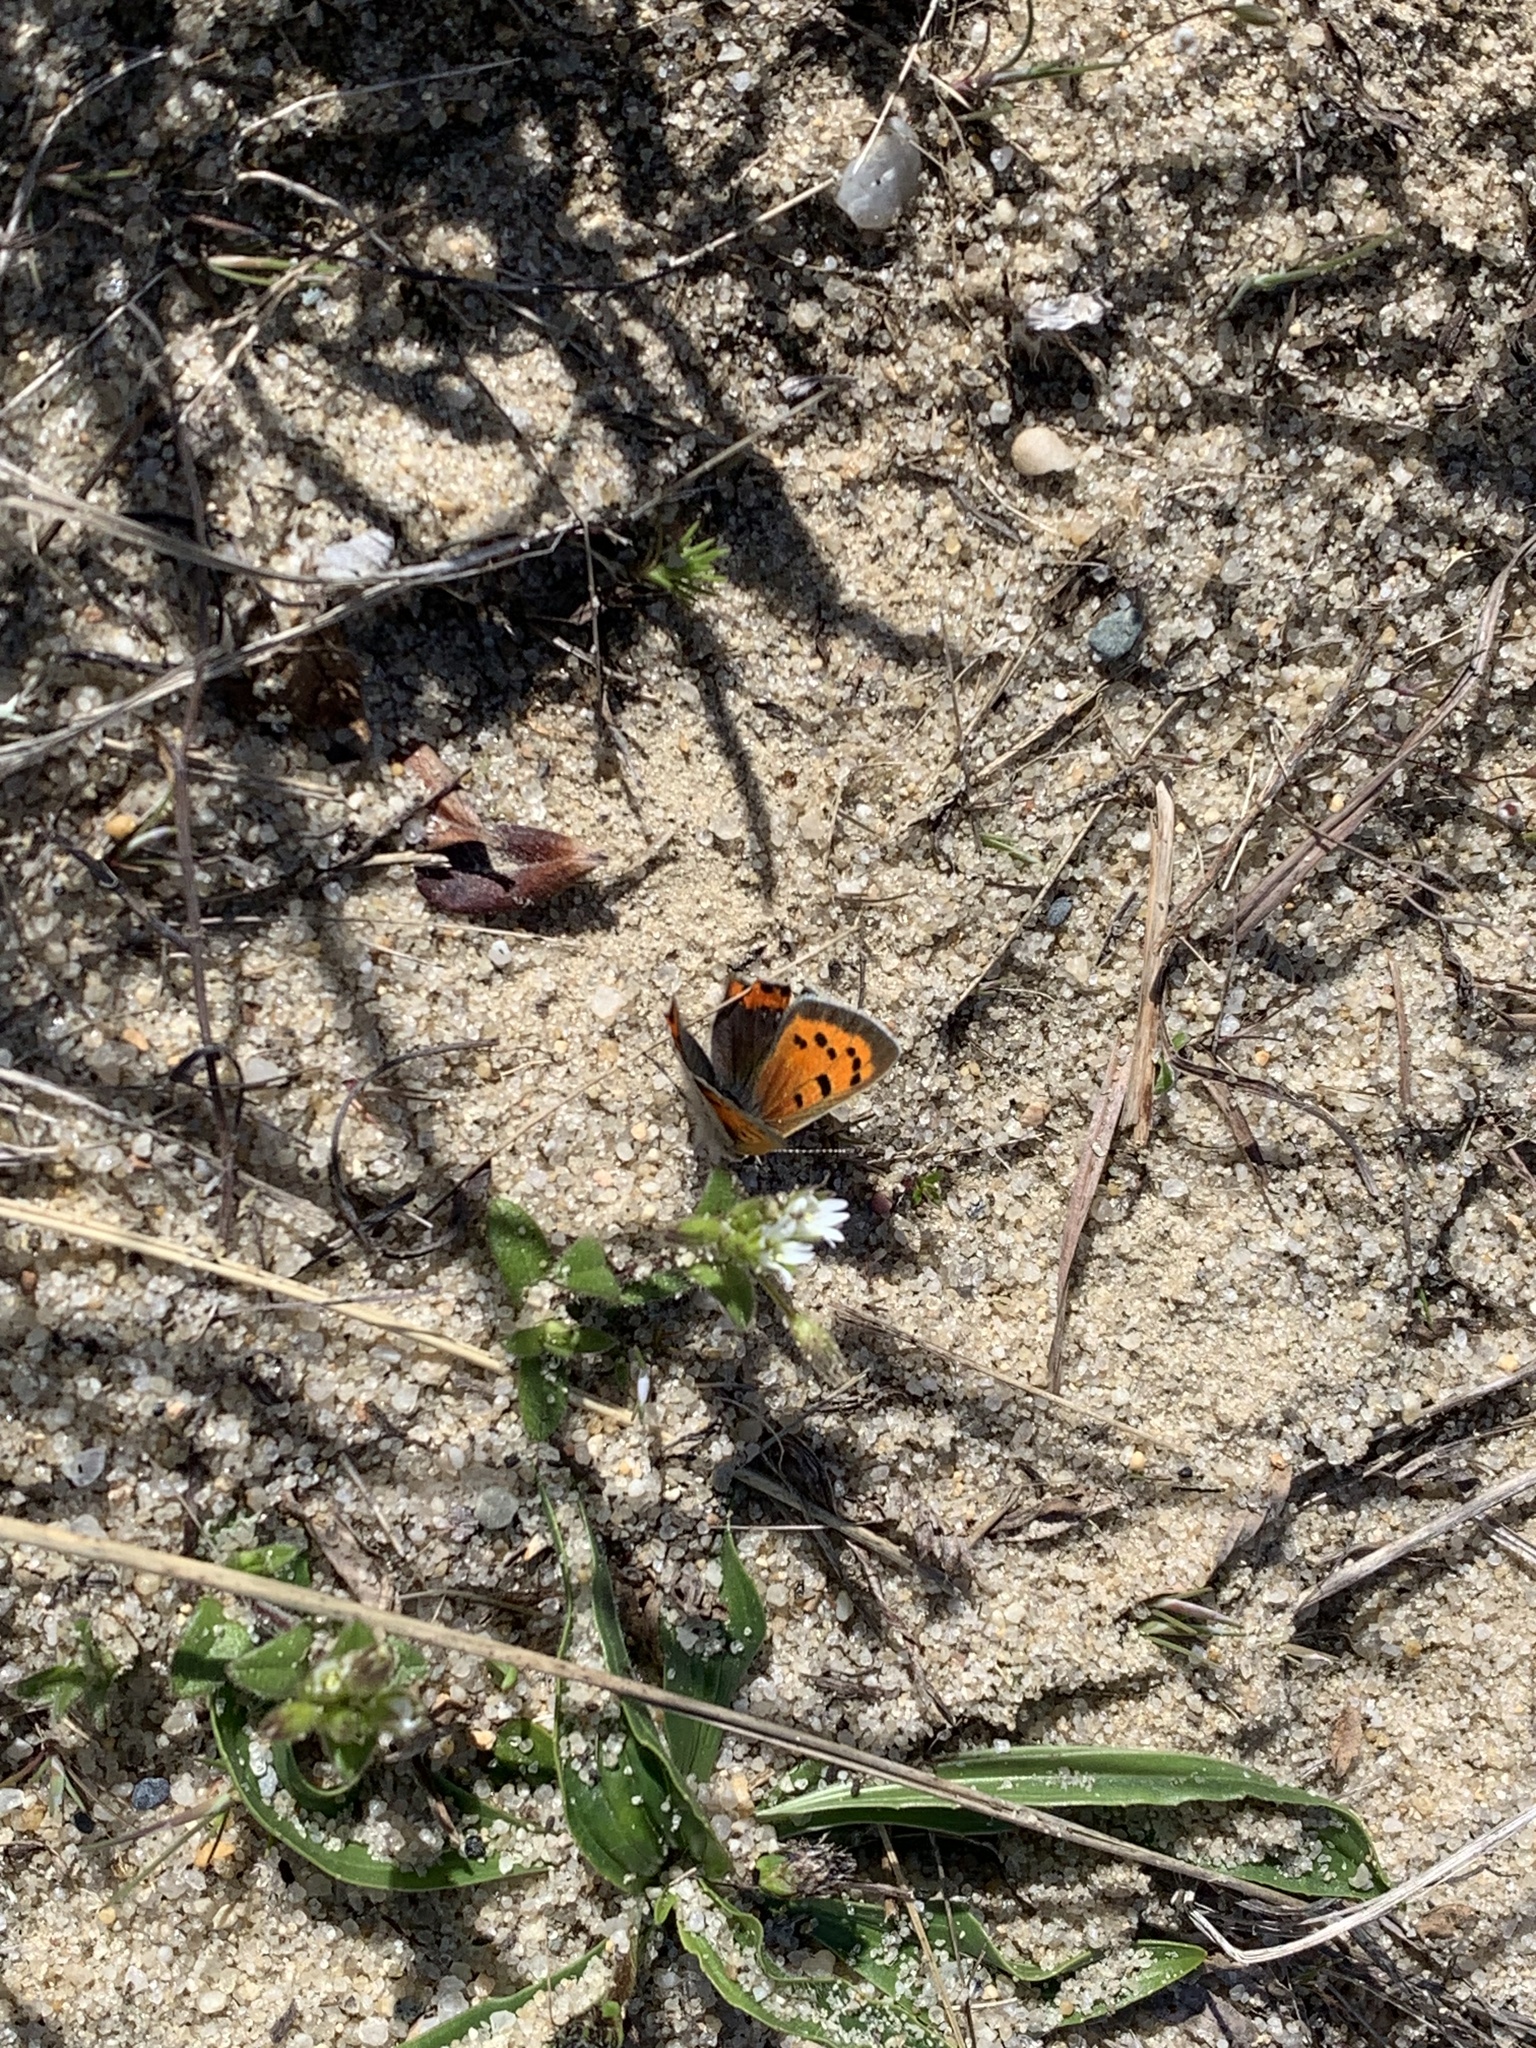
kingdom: Animalia
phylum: Arthropoda
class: Insecta
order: Lepidoptera
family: Lycaenidae
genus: Lycaena
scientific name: Lycaena hypophlaeas
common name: American copper
